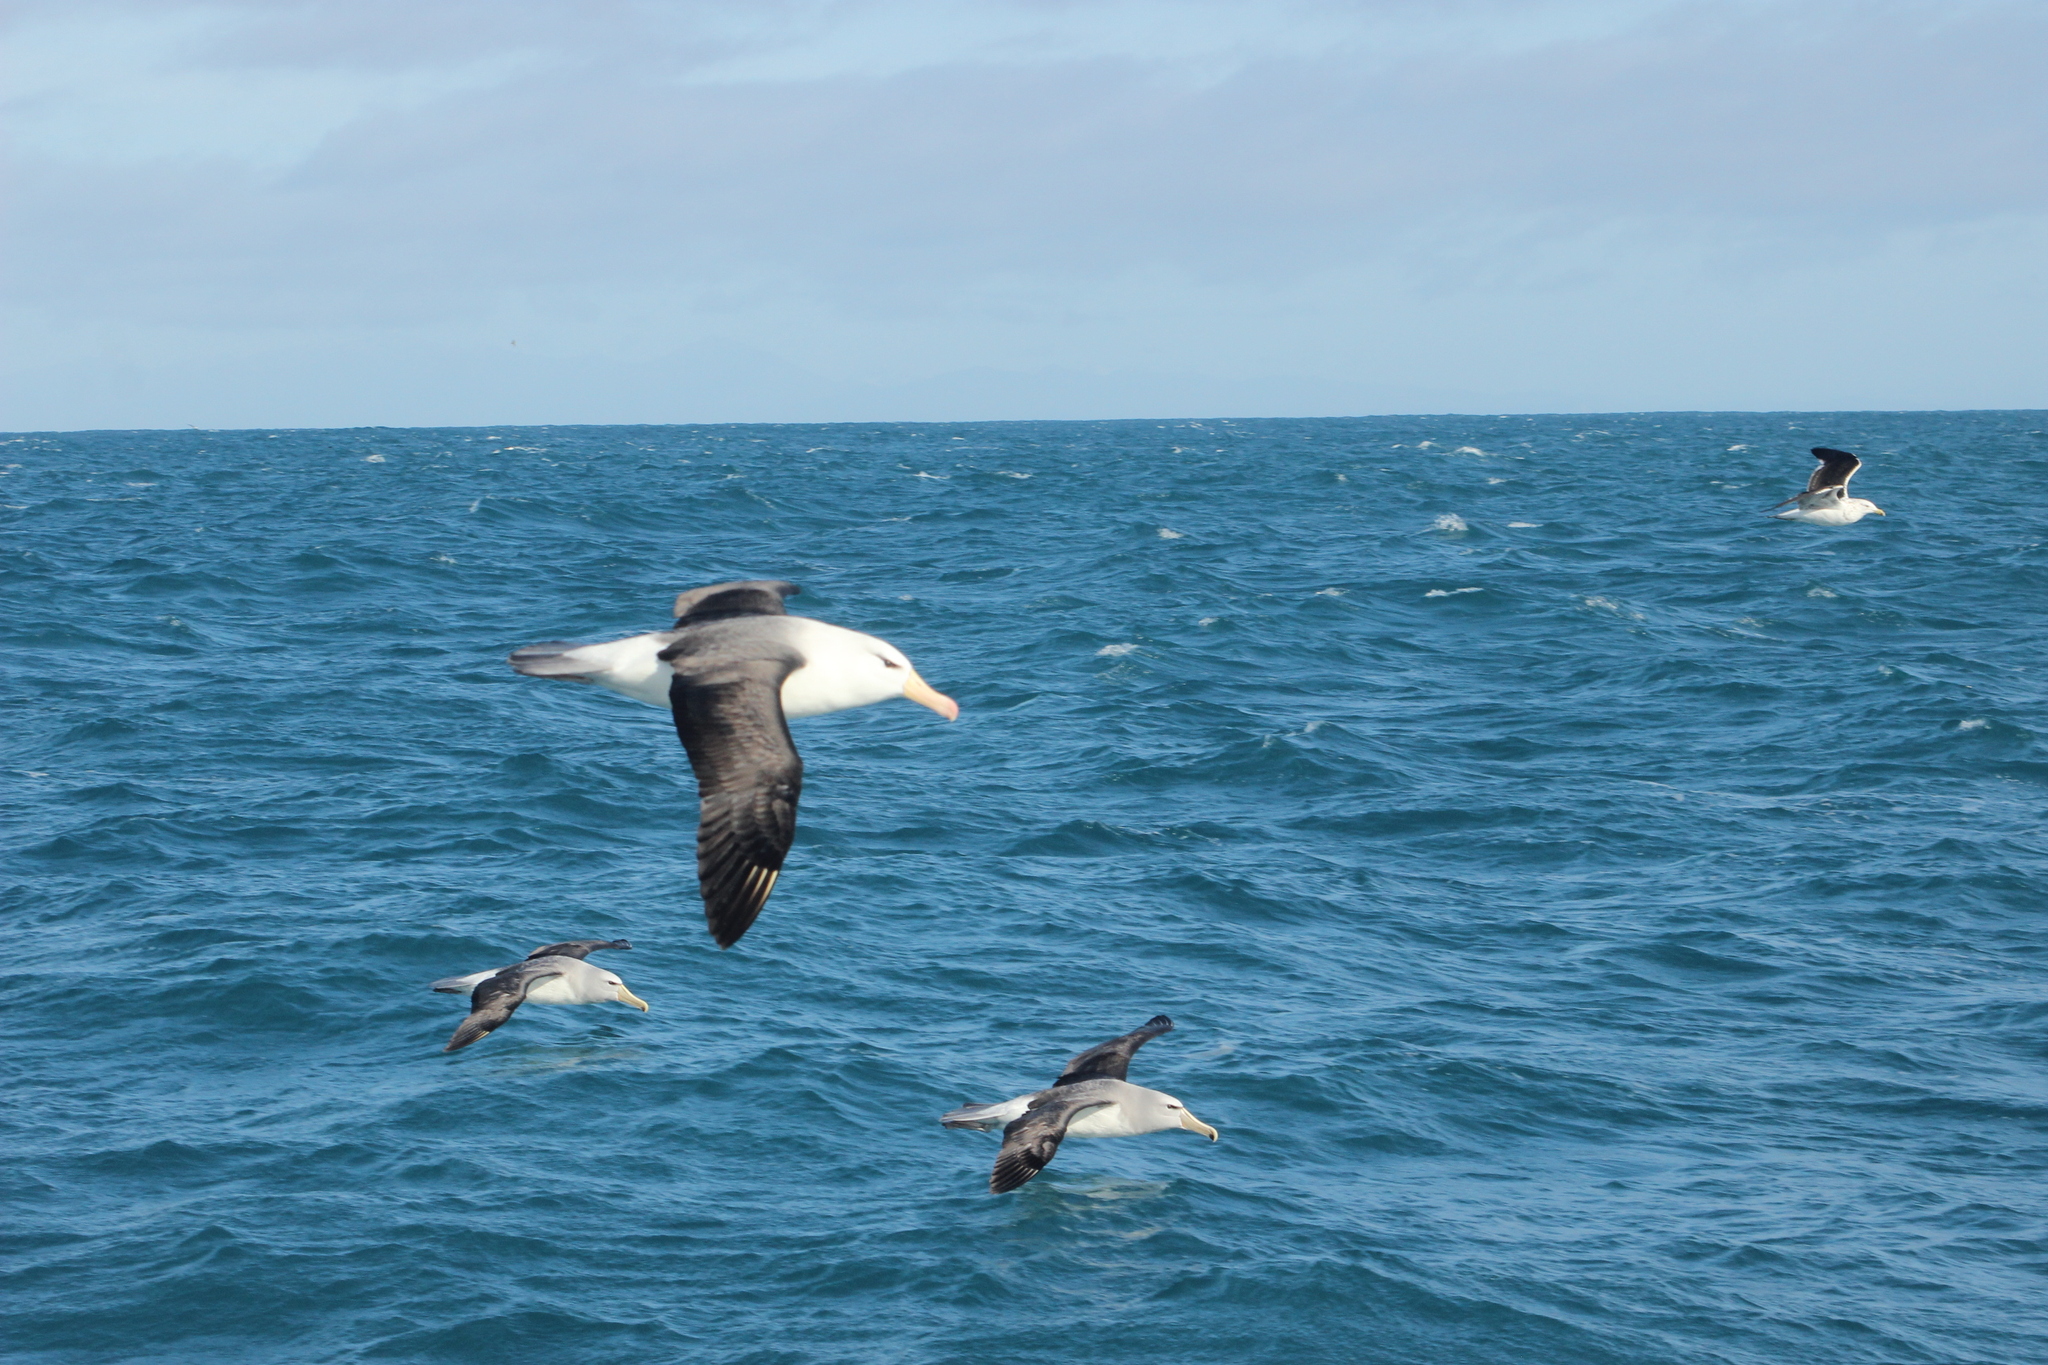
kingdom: Animalia
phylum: Chordata
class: Aves
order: Procellariiformes
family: Diomedeidae
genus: Thalassarche
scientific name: Thalassarche melanophris
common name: Black-browed albatross
